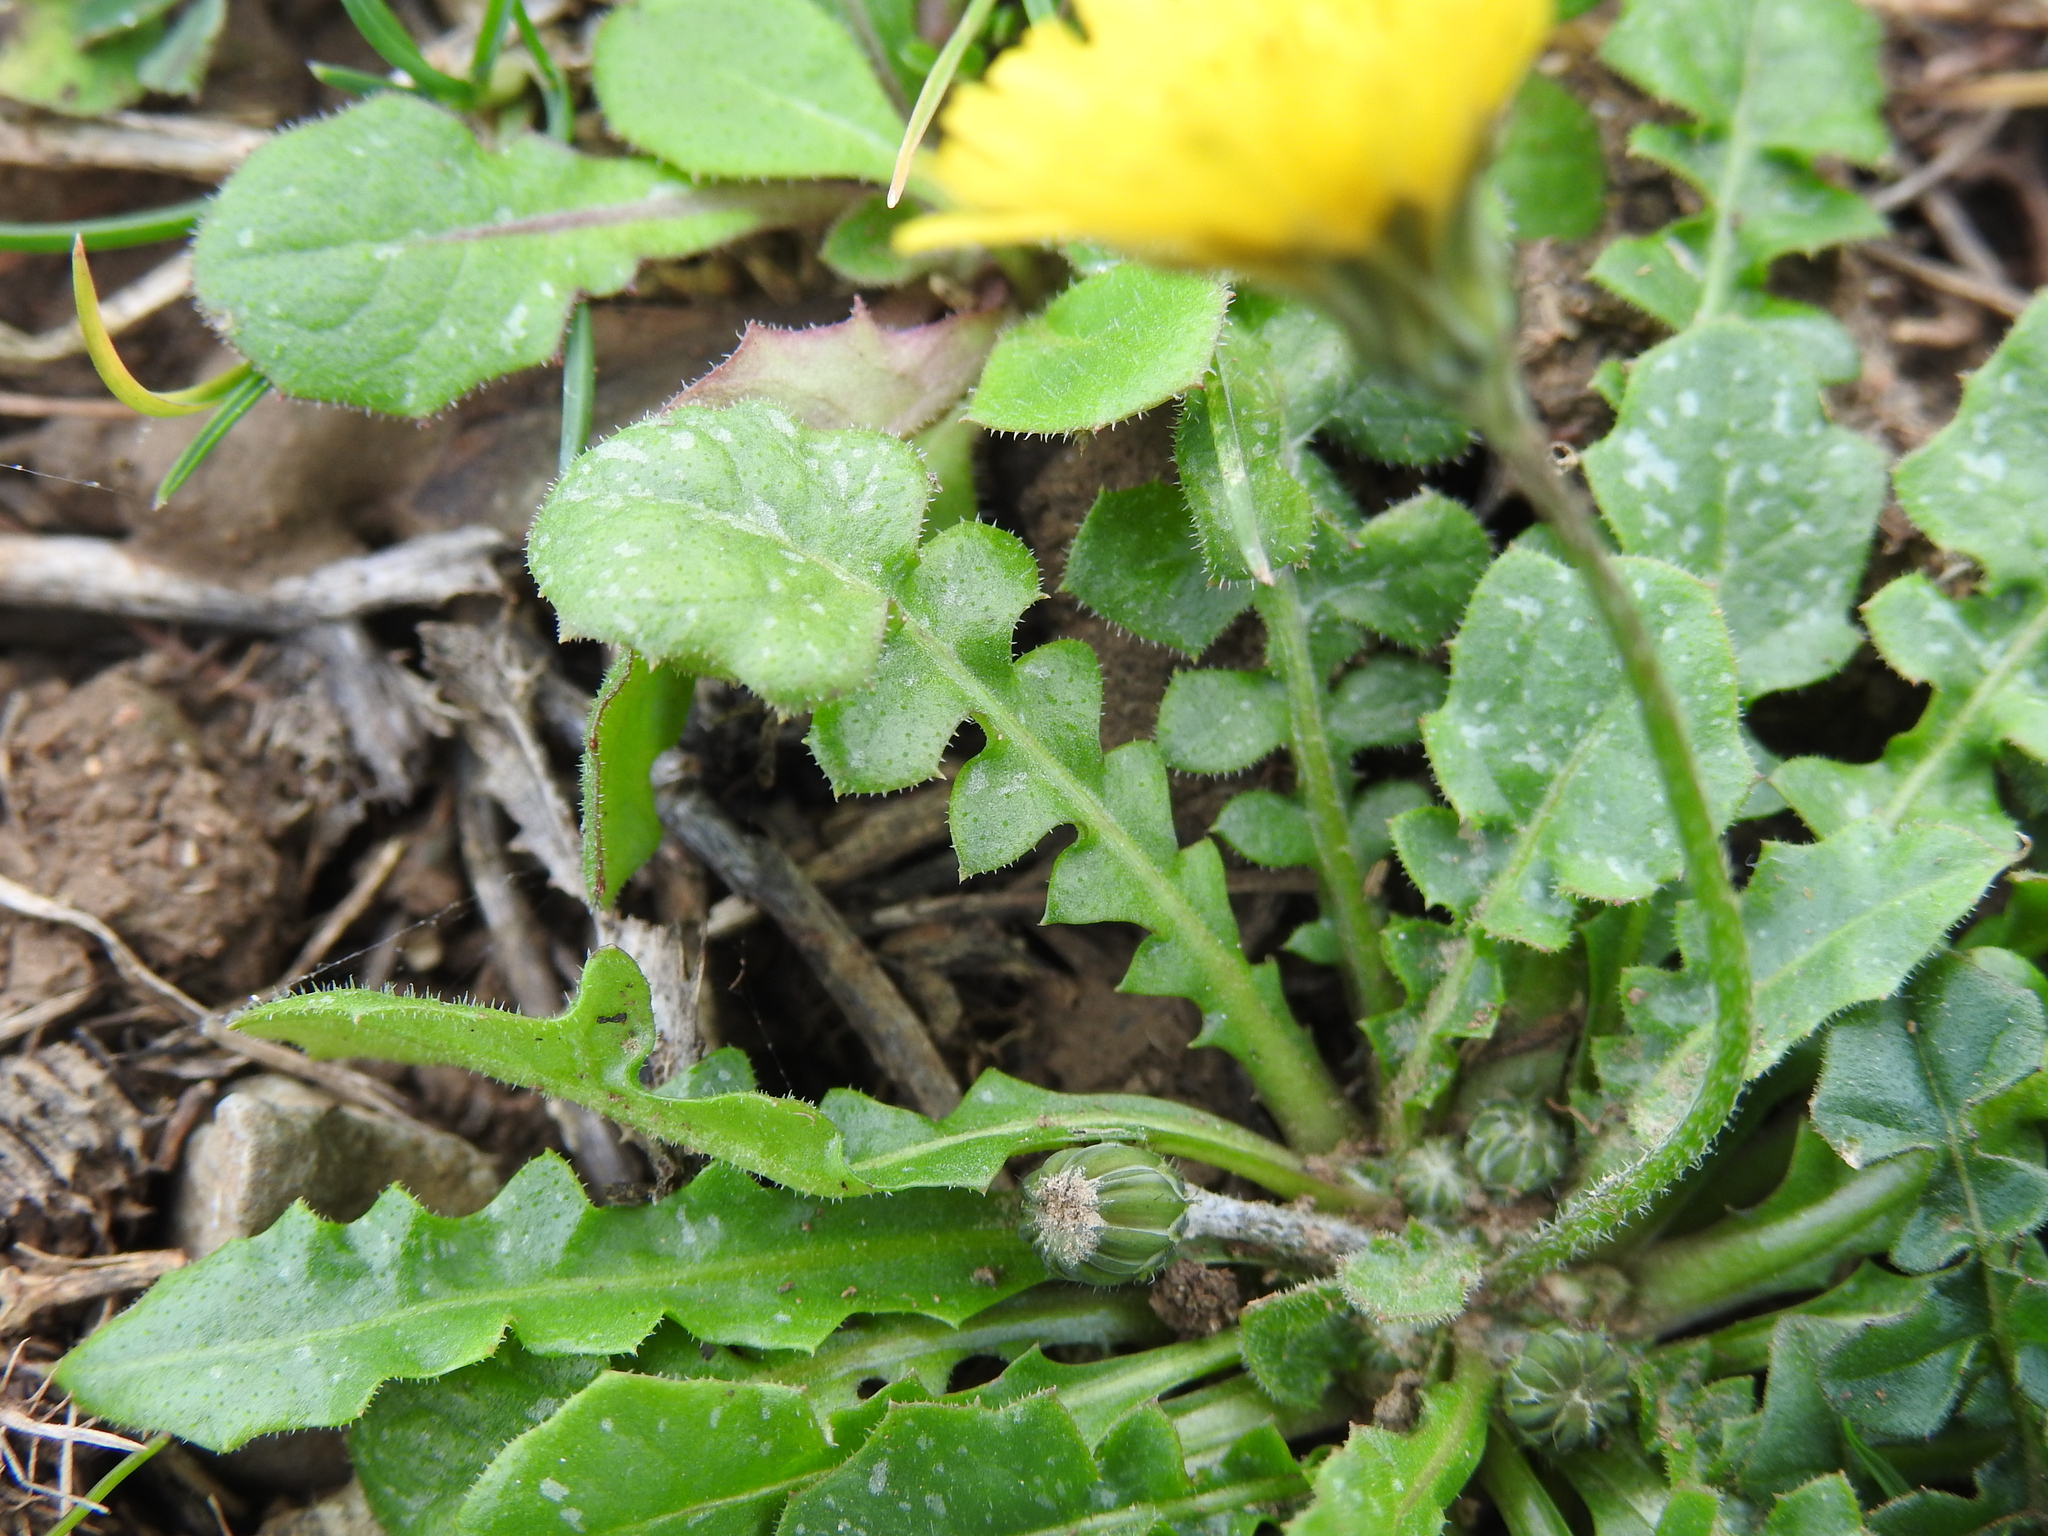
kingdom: Plantae
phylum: Tracheophyta
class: Magnoliopsida
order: Asterales
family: Asteraceae
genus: Crepis
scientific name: Crepis sancta
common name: Hawk's-beard
